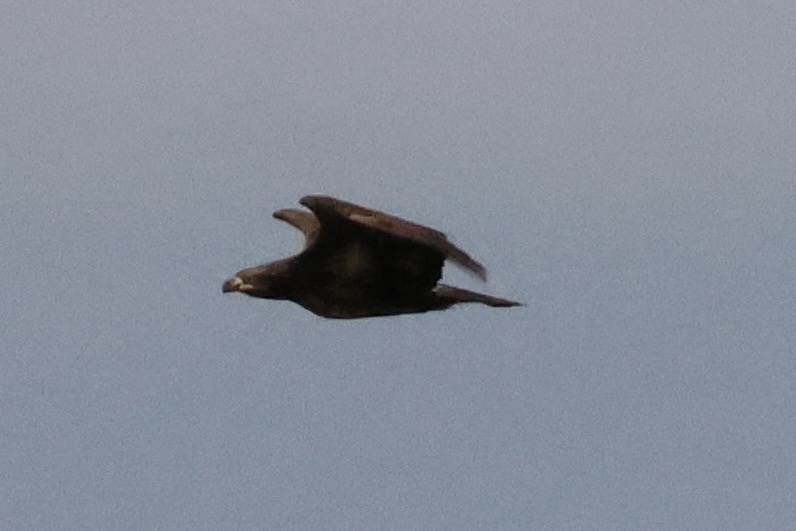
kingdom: Animalia
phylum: Chordata
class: Aves
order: Accipitriformes
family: Accipitridae
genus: Haliaeetus
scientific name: Haliaeetus leucocephalus
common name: Bald eagle
